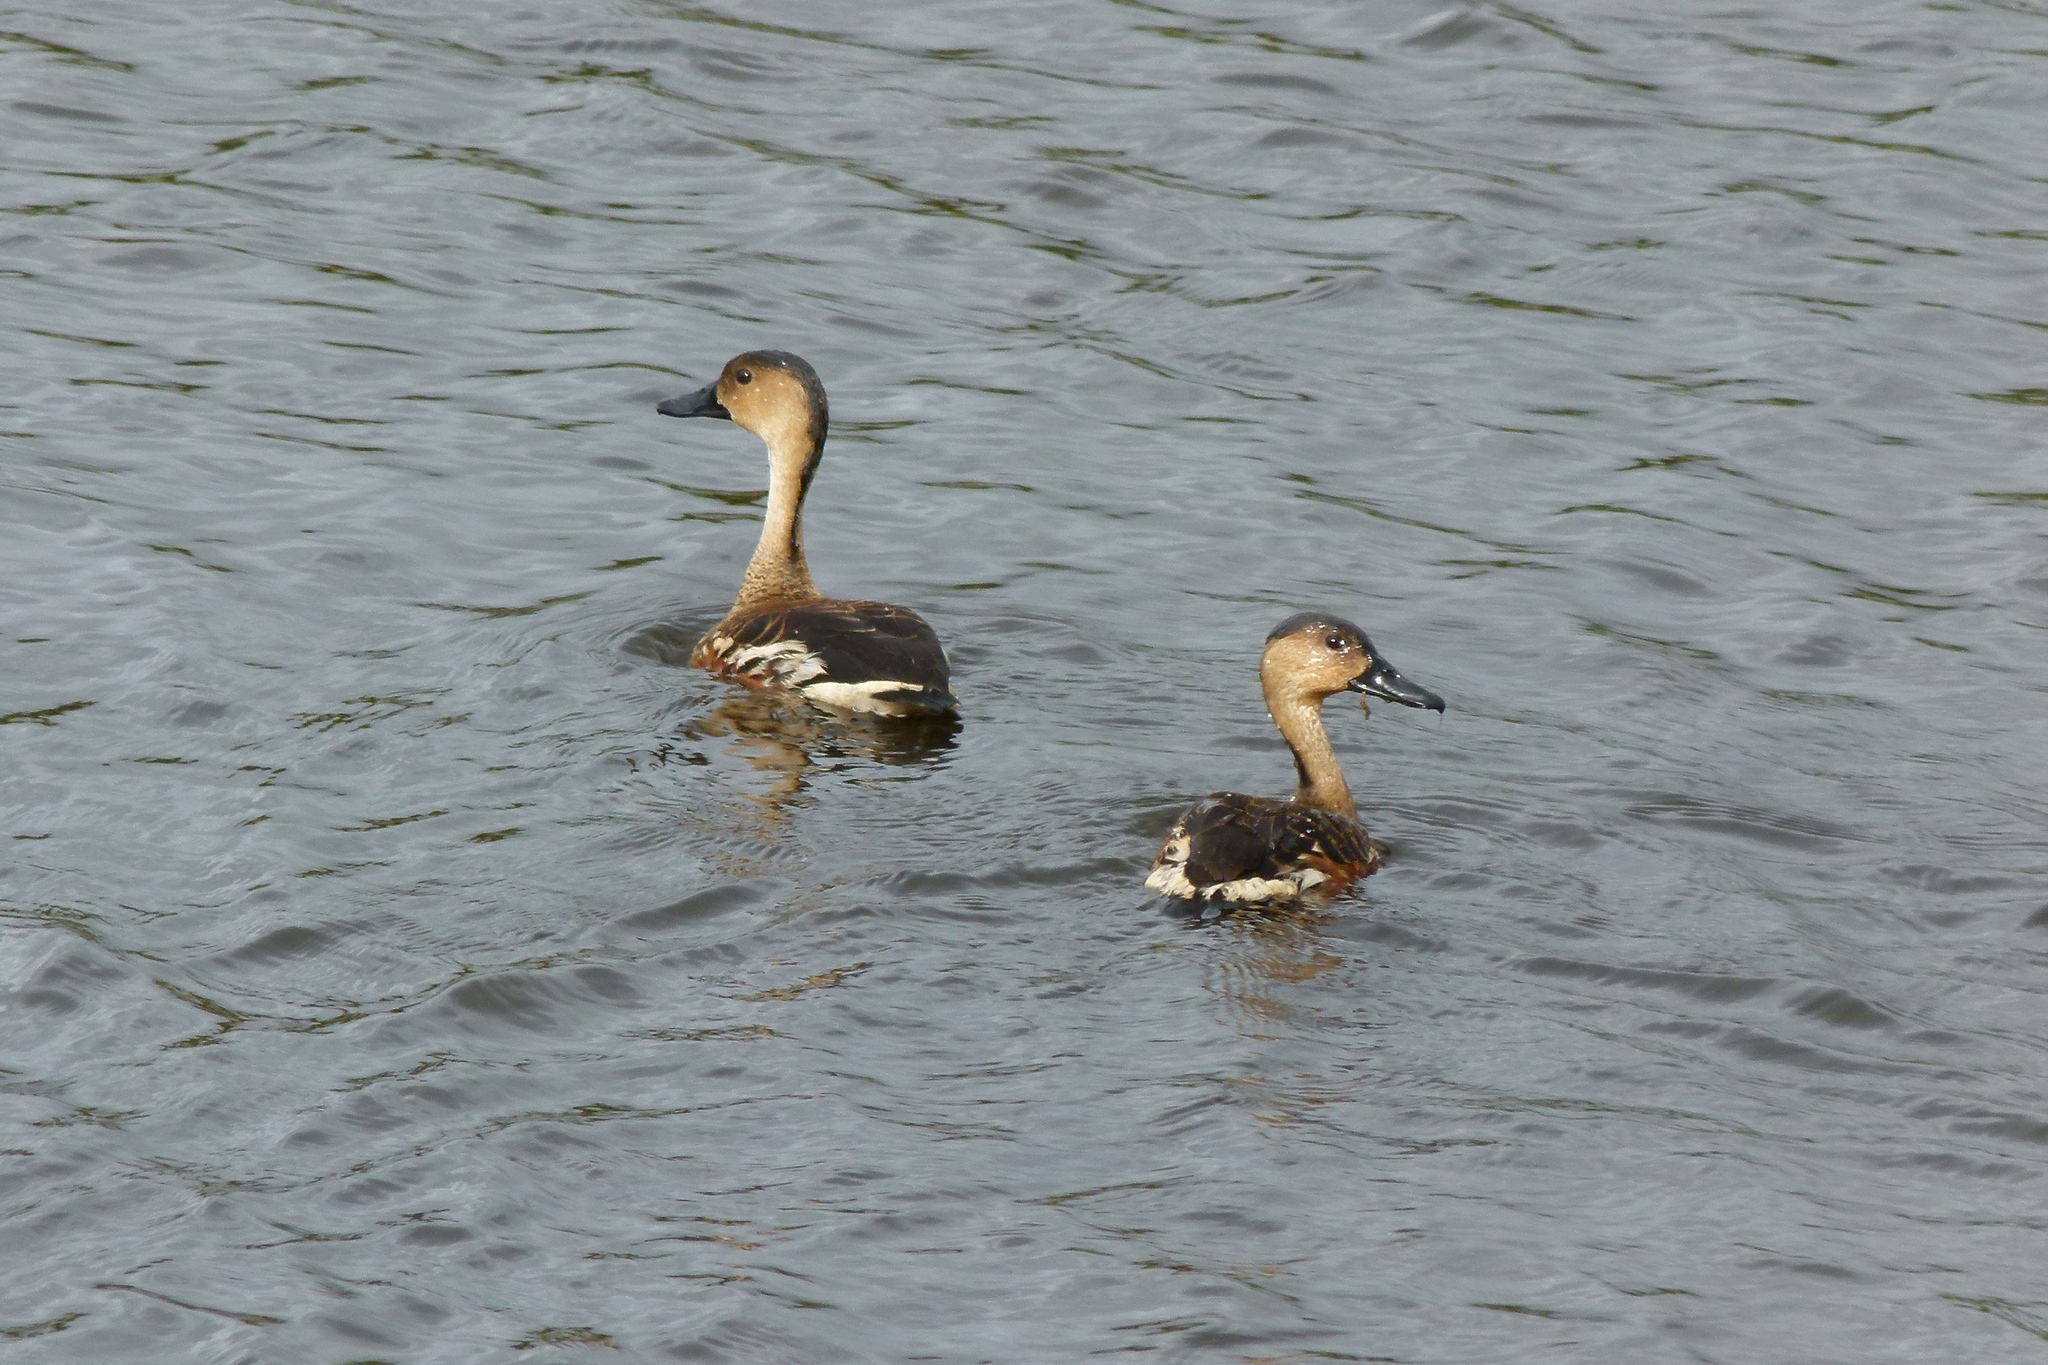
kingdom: Animalia
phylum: Chordata
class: Aves
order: Anseriformes
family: Anatidae
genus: Dendrocygna
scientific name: Dendrocygna arcuata
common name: Wandering whistling-duck
